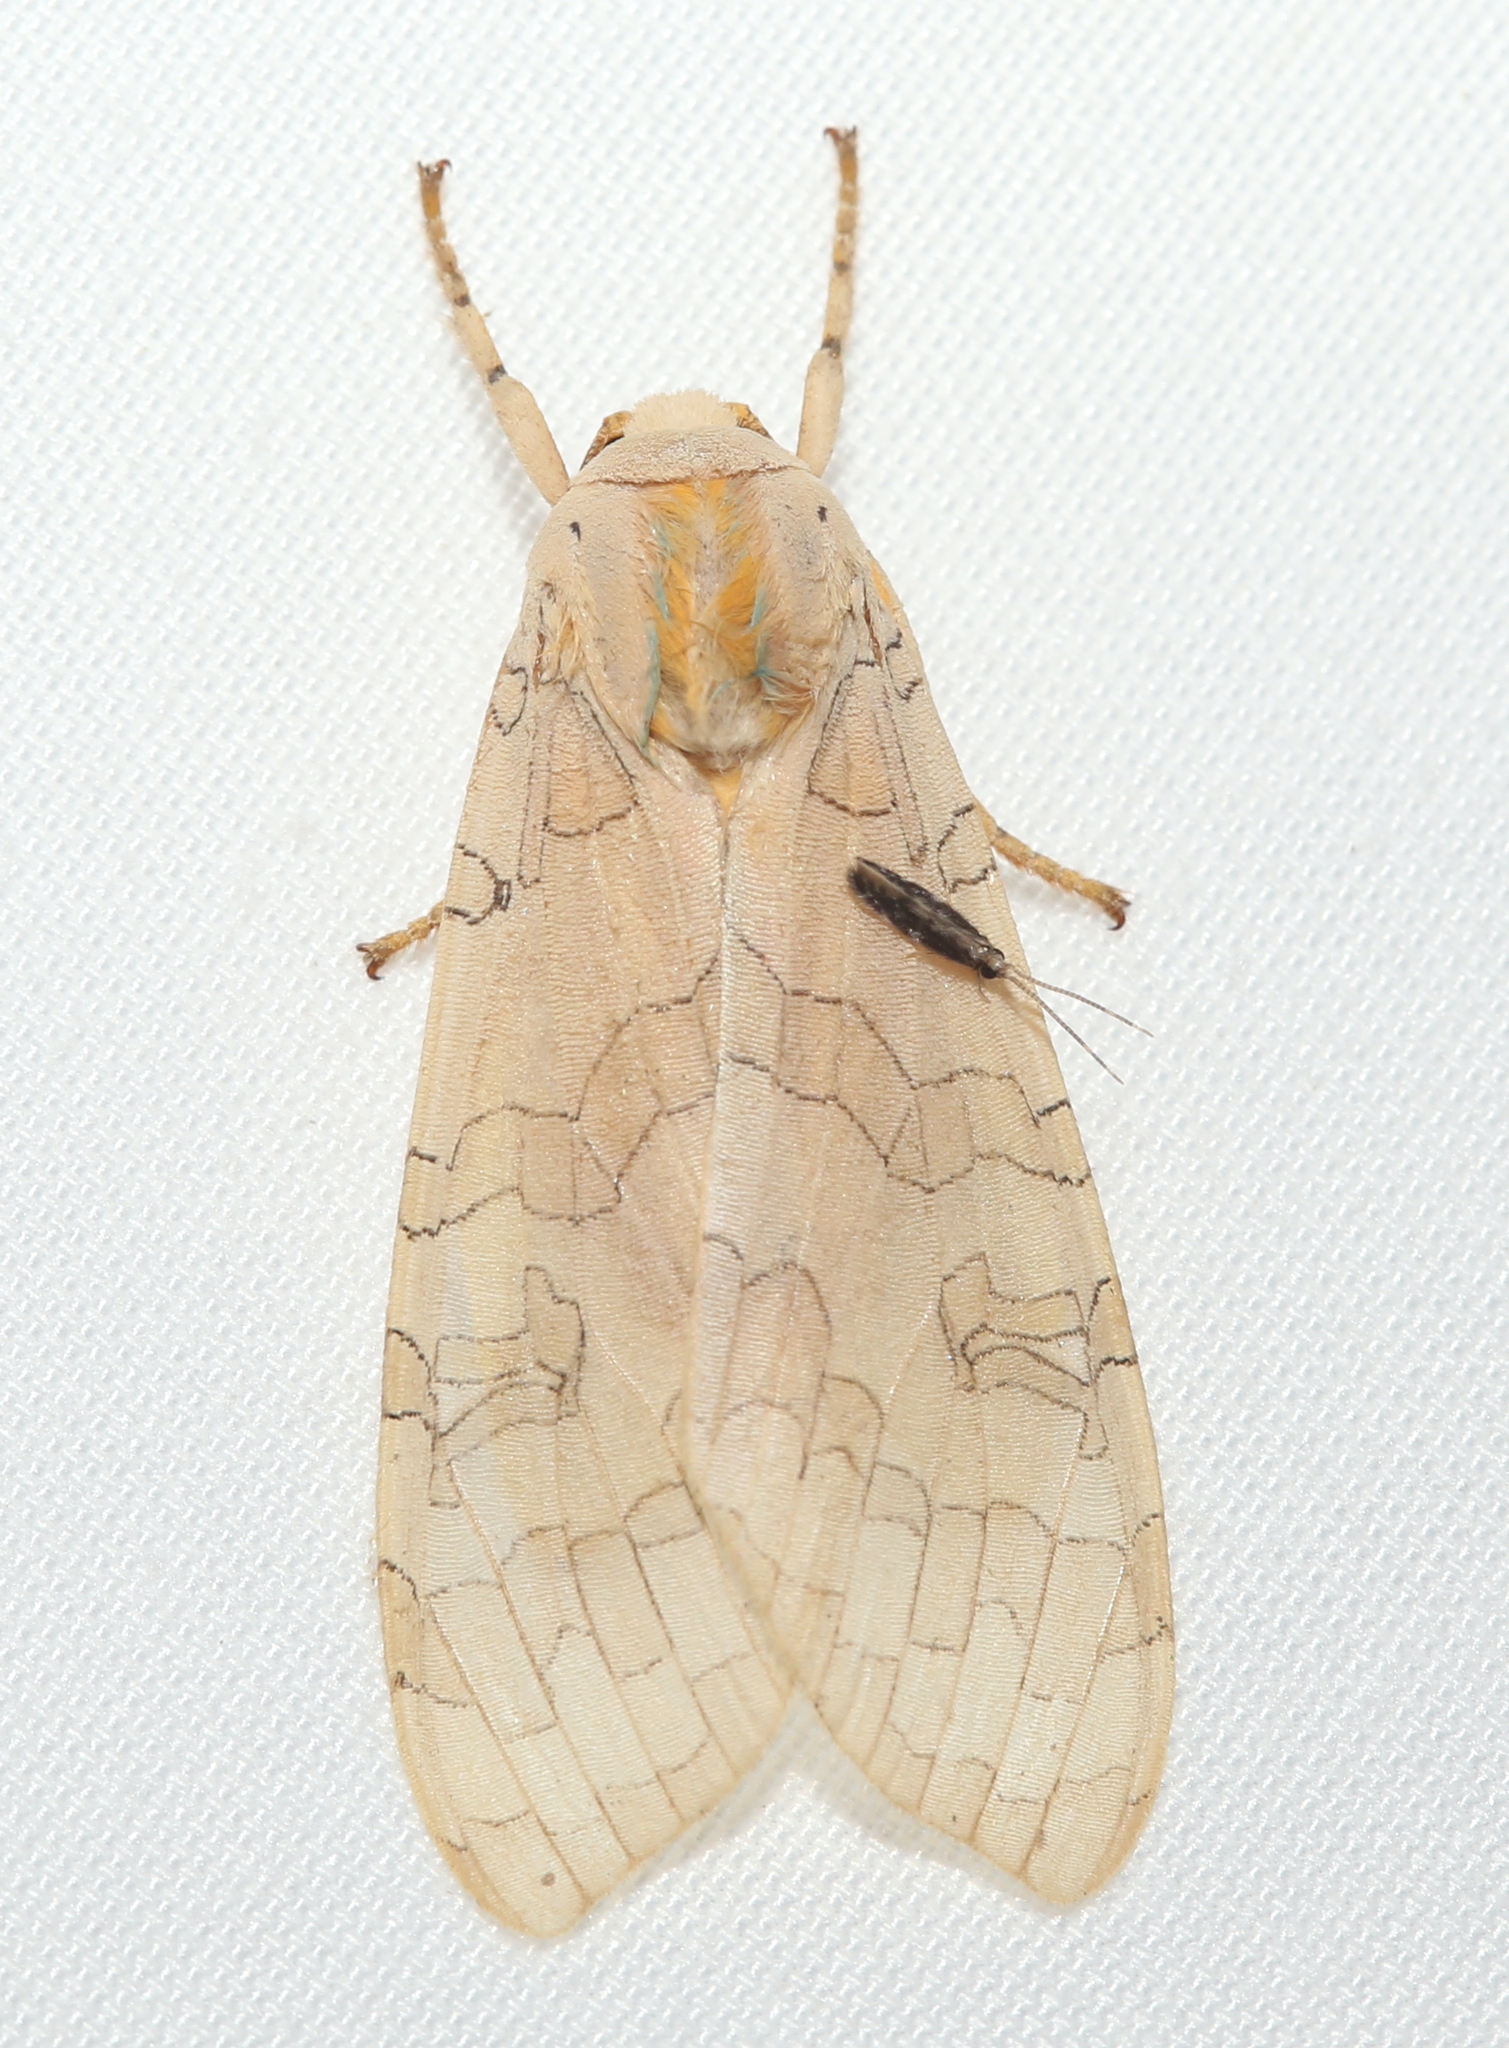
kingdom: Animalia
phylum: Arthropoda
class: Insecta
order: Lepidoptera
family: Erebidae
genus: Halysidota
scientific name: Halysidota
